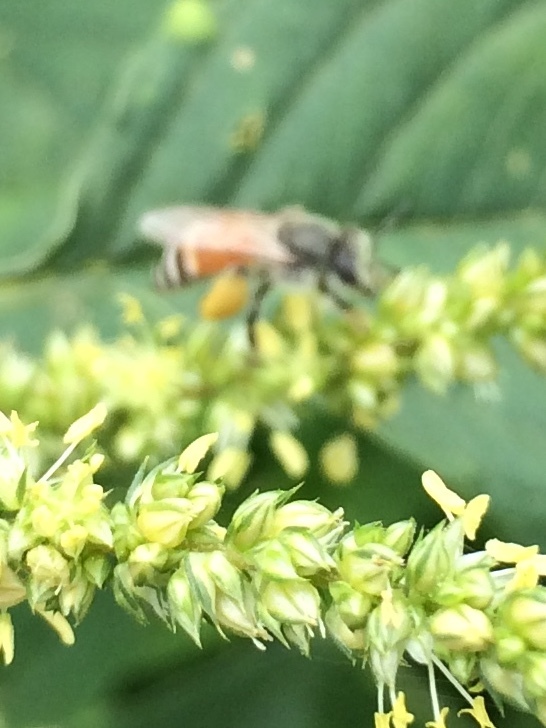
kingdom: Animalia
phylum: Arthropoda
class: Insecta
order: Hymenoptera
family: Apidae
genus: Apis
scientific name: Apis florea
